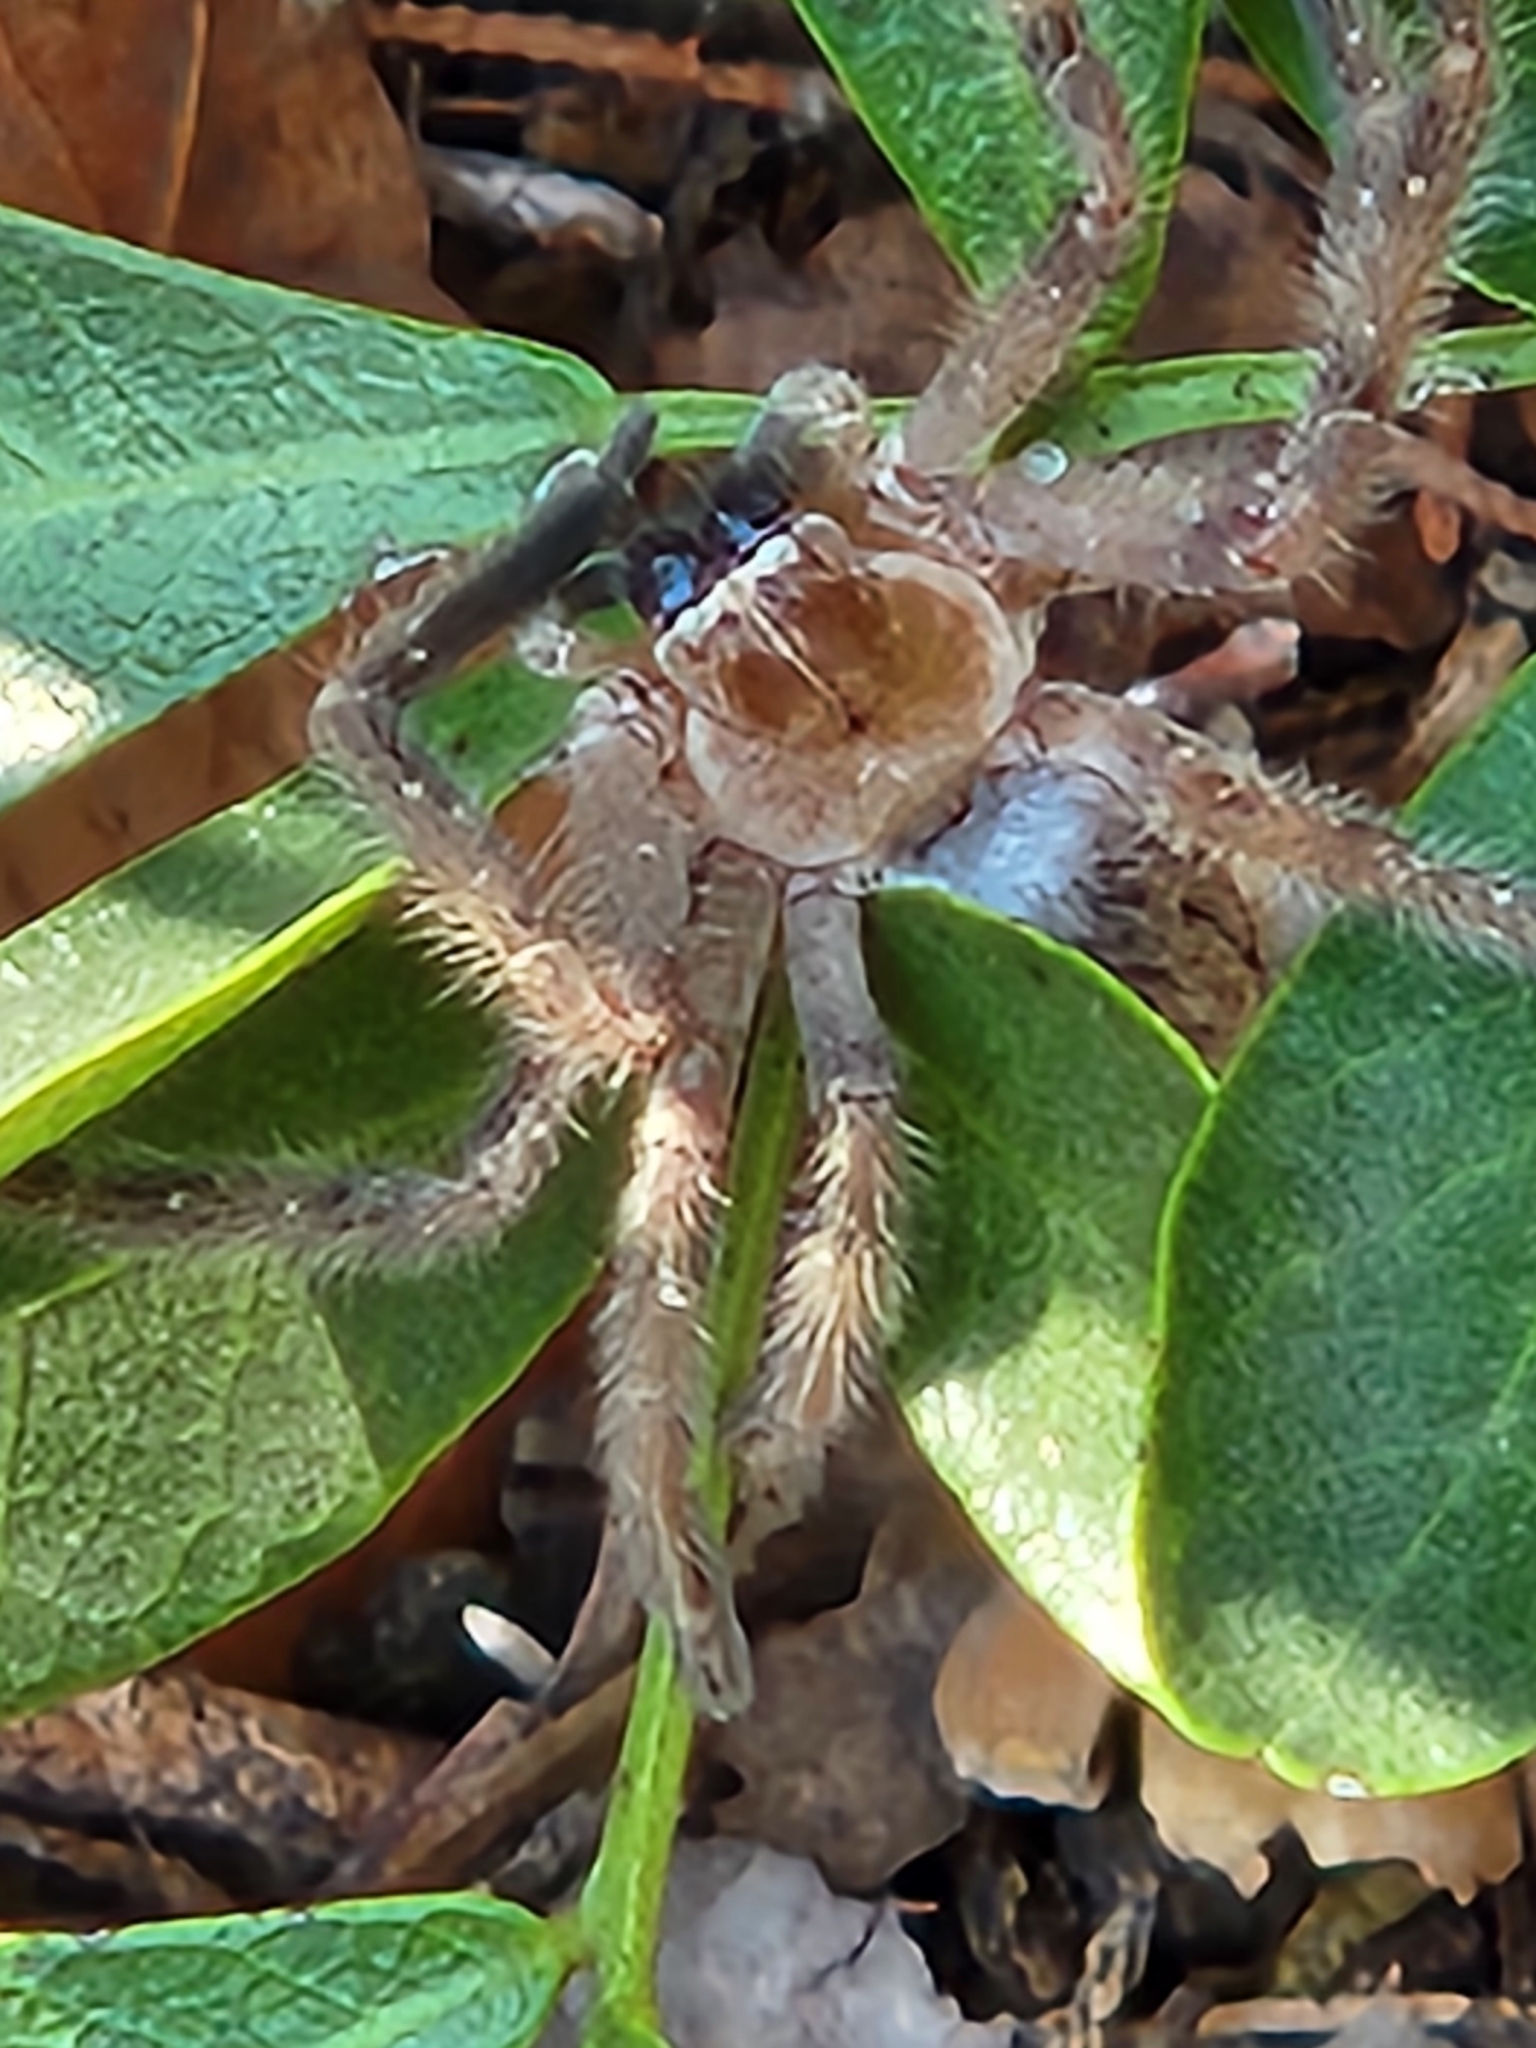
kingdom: Animalia
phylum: Arthropoda
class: Arachnida
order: Araneae
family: Sparassidae
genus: Olios
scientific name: Olios giganteus
